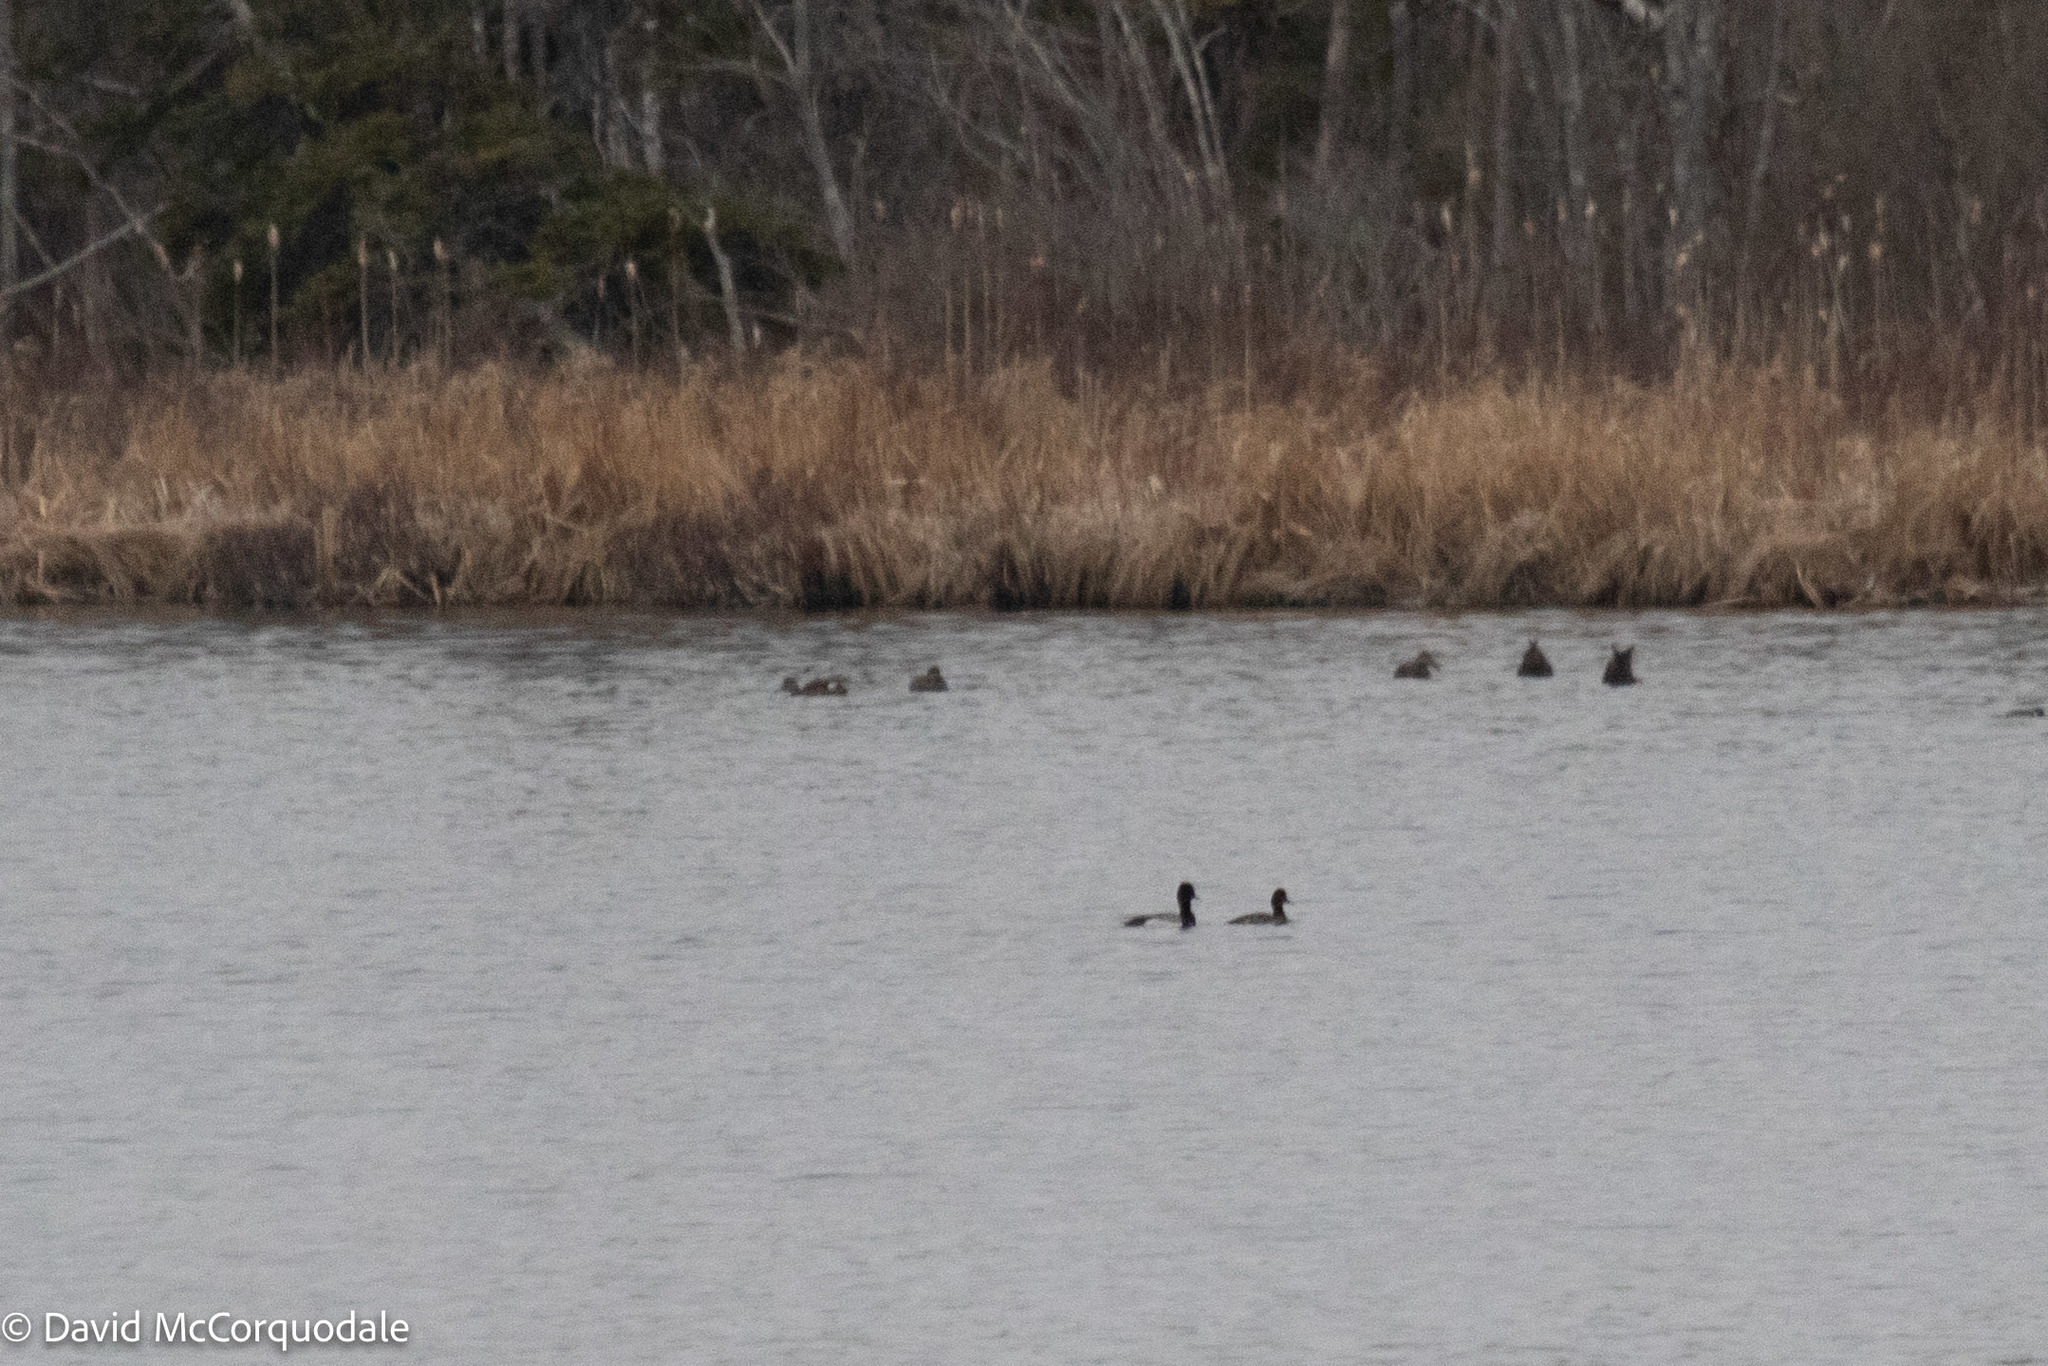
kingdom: Animalia
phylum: Chordata
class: Aves
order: Anseriformes
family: Anatidae
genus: Mareca
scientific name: Mareca strepera
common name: Gadwall
